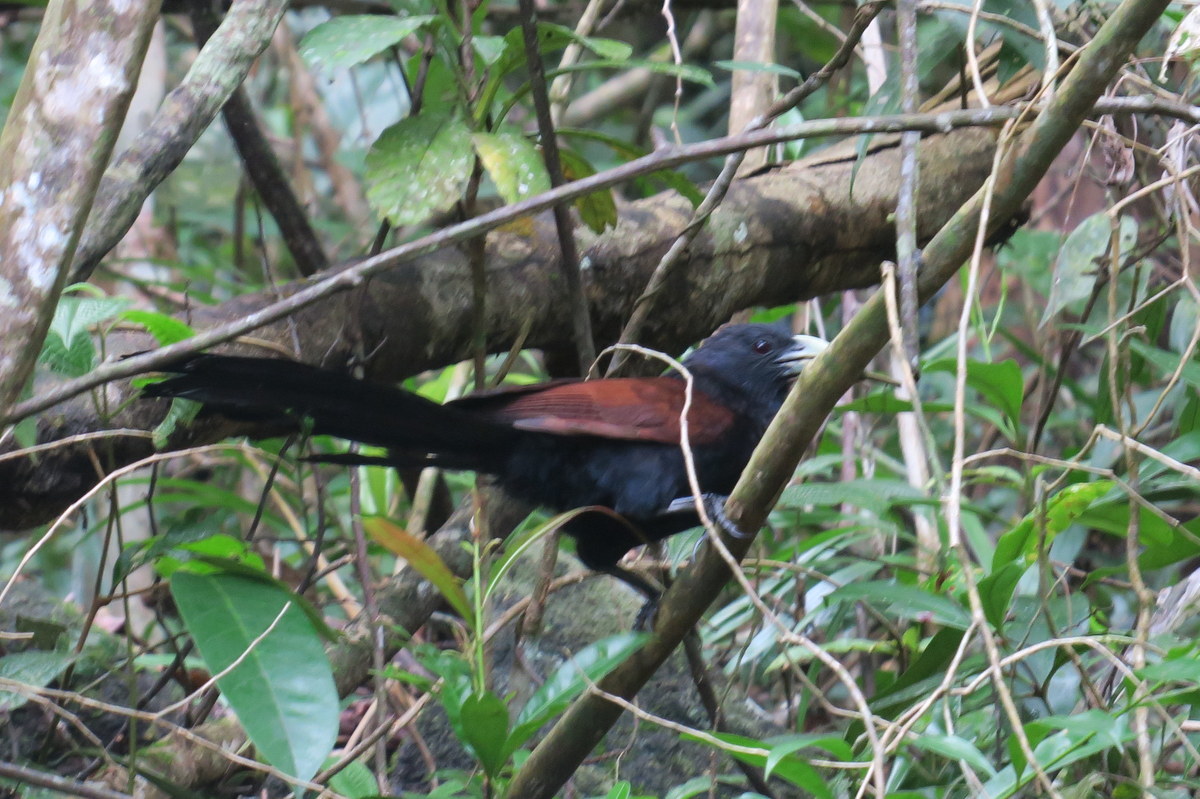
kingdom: Animalia
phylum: Chordata
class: Aves
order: Cuculiformes
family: Cuculidae
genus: Centropus
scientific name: Centropus chlororhynchos
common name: Green-billed coucal
